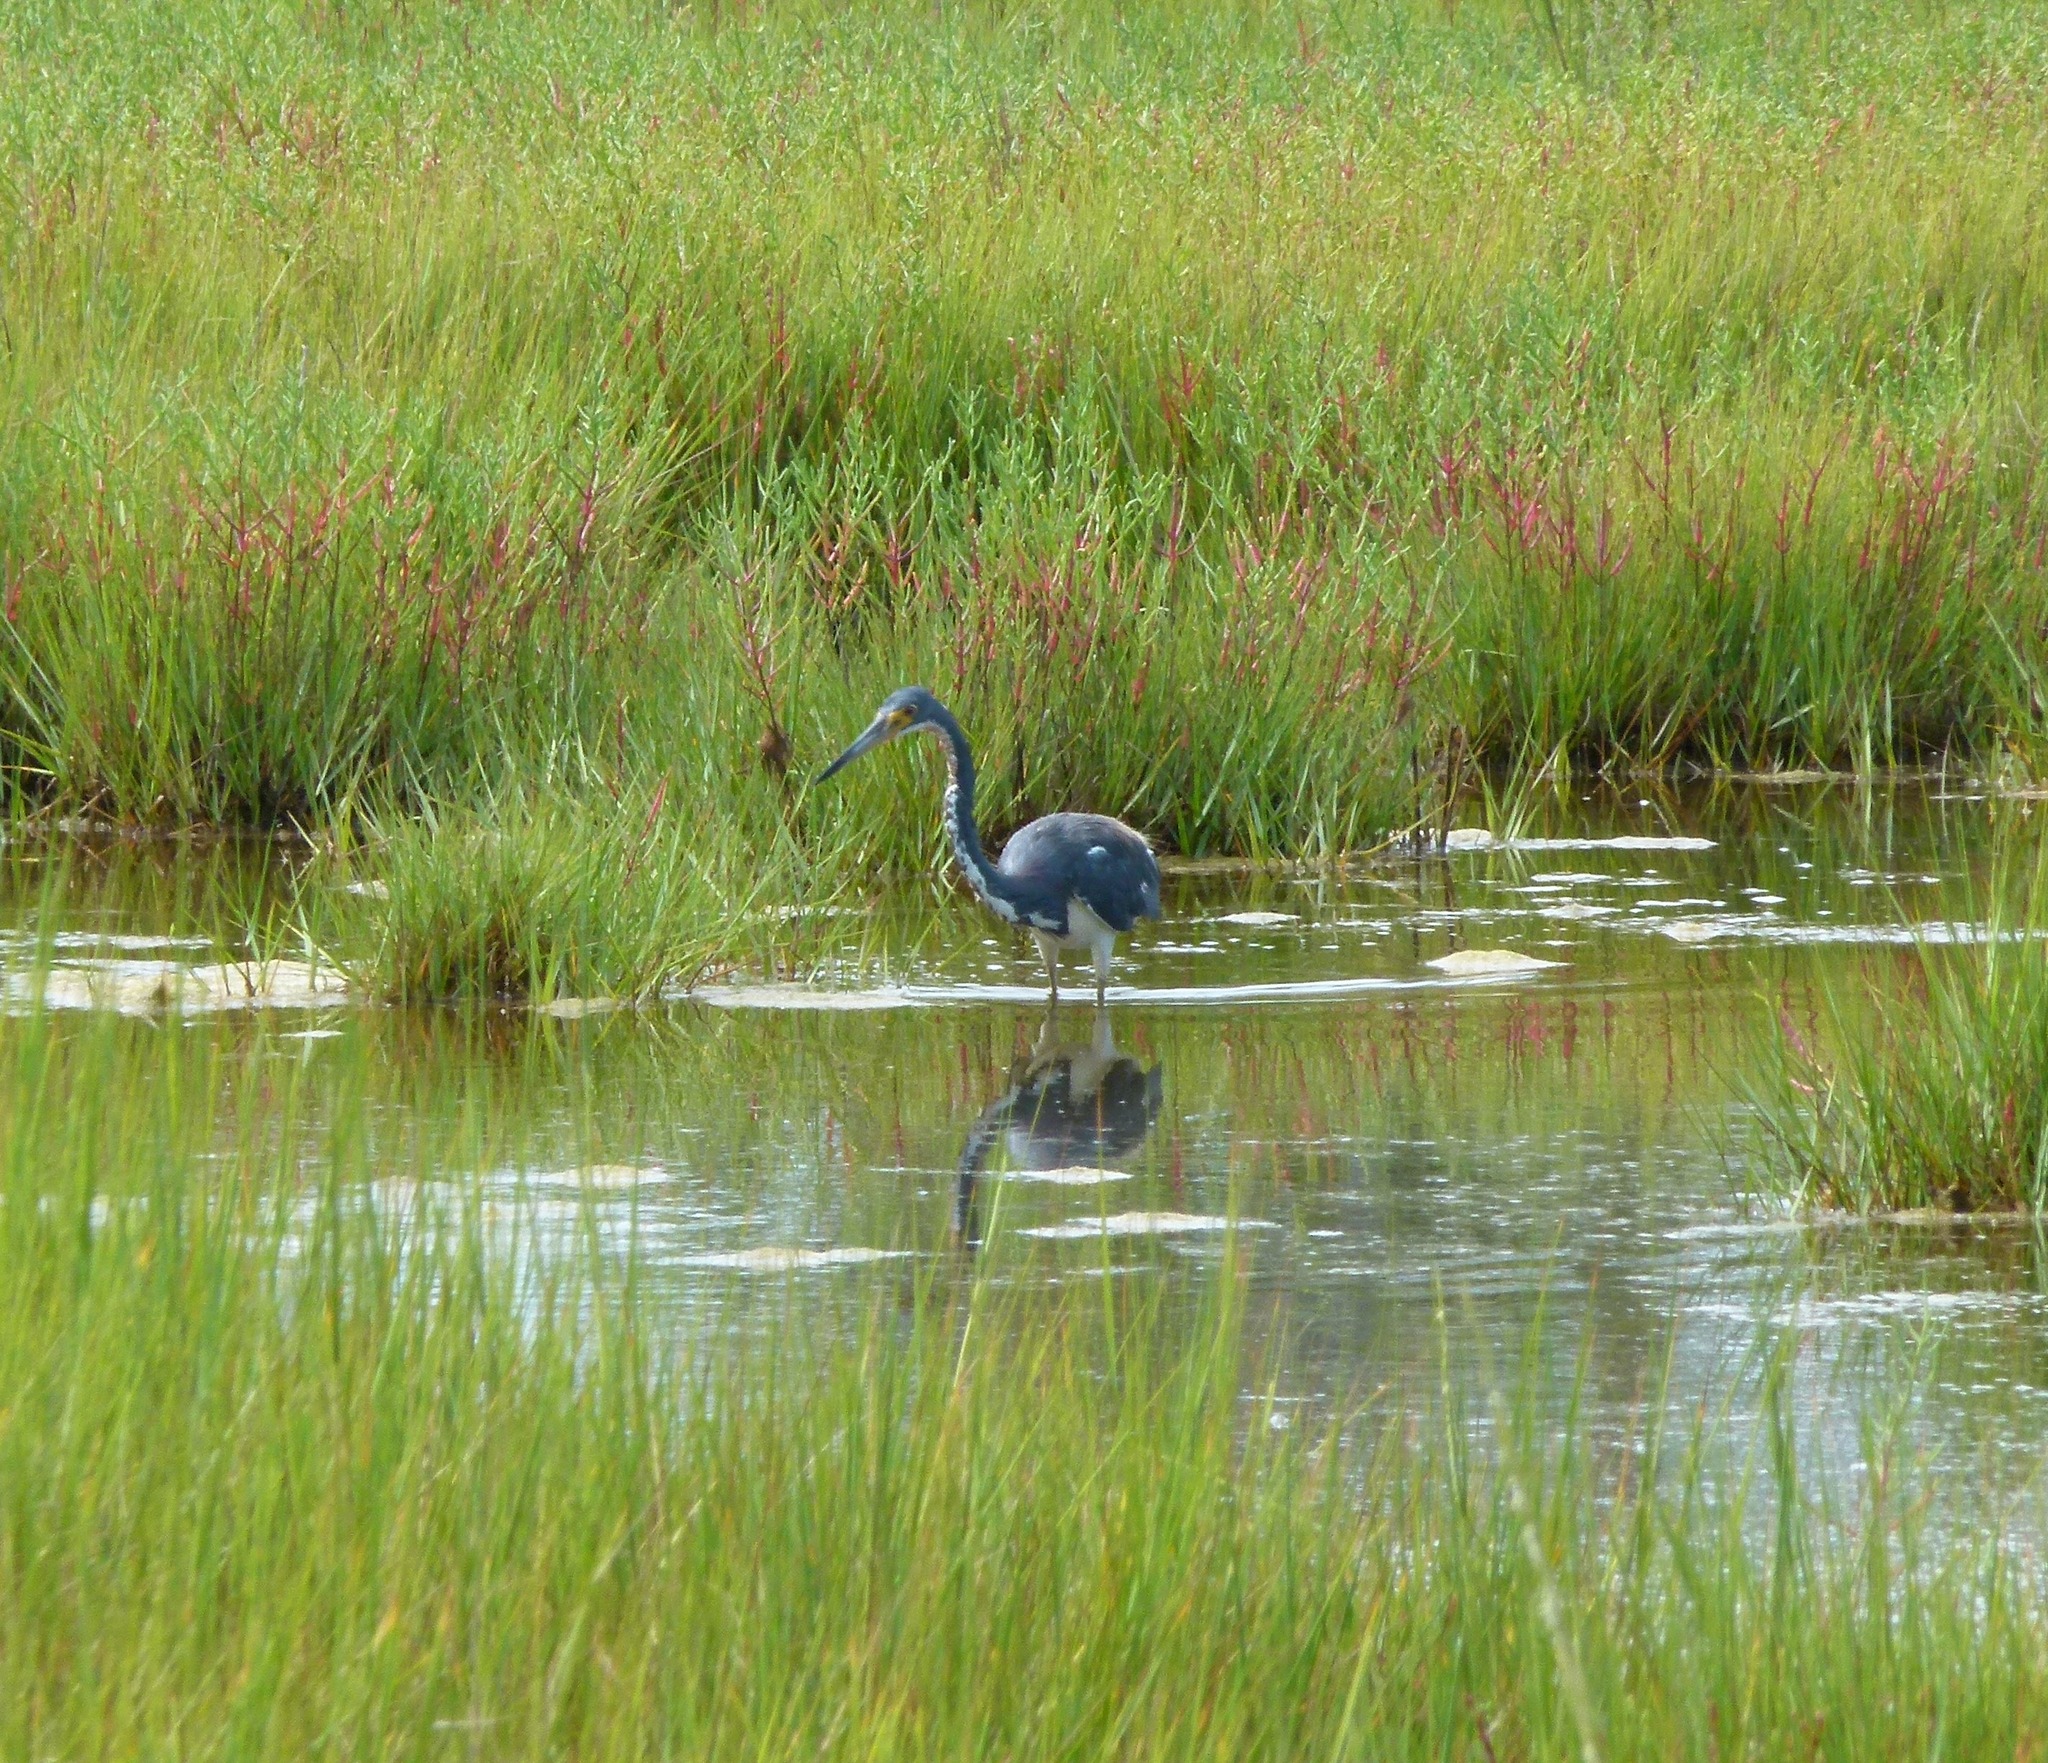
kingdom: Animalia
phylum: Chordata
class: Aves
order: Pelecaniformes
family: Ardeidae
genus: Egretta
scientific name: Egretta tricolor
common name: Tricolored heron
